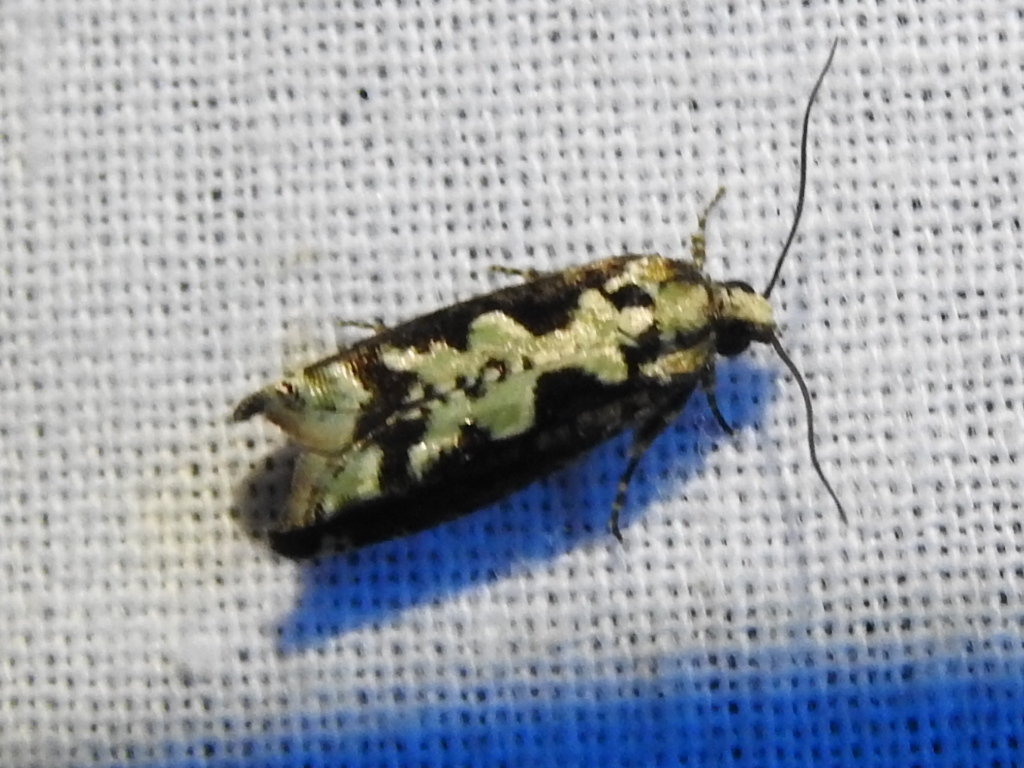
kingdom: Animalia
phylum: Arthropoda
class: Insecta
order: Lepidoptera
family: Tortricidae
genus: Chimoptesis
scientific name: Chimoptesis pennsylvaniana
